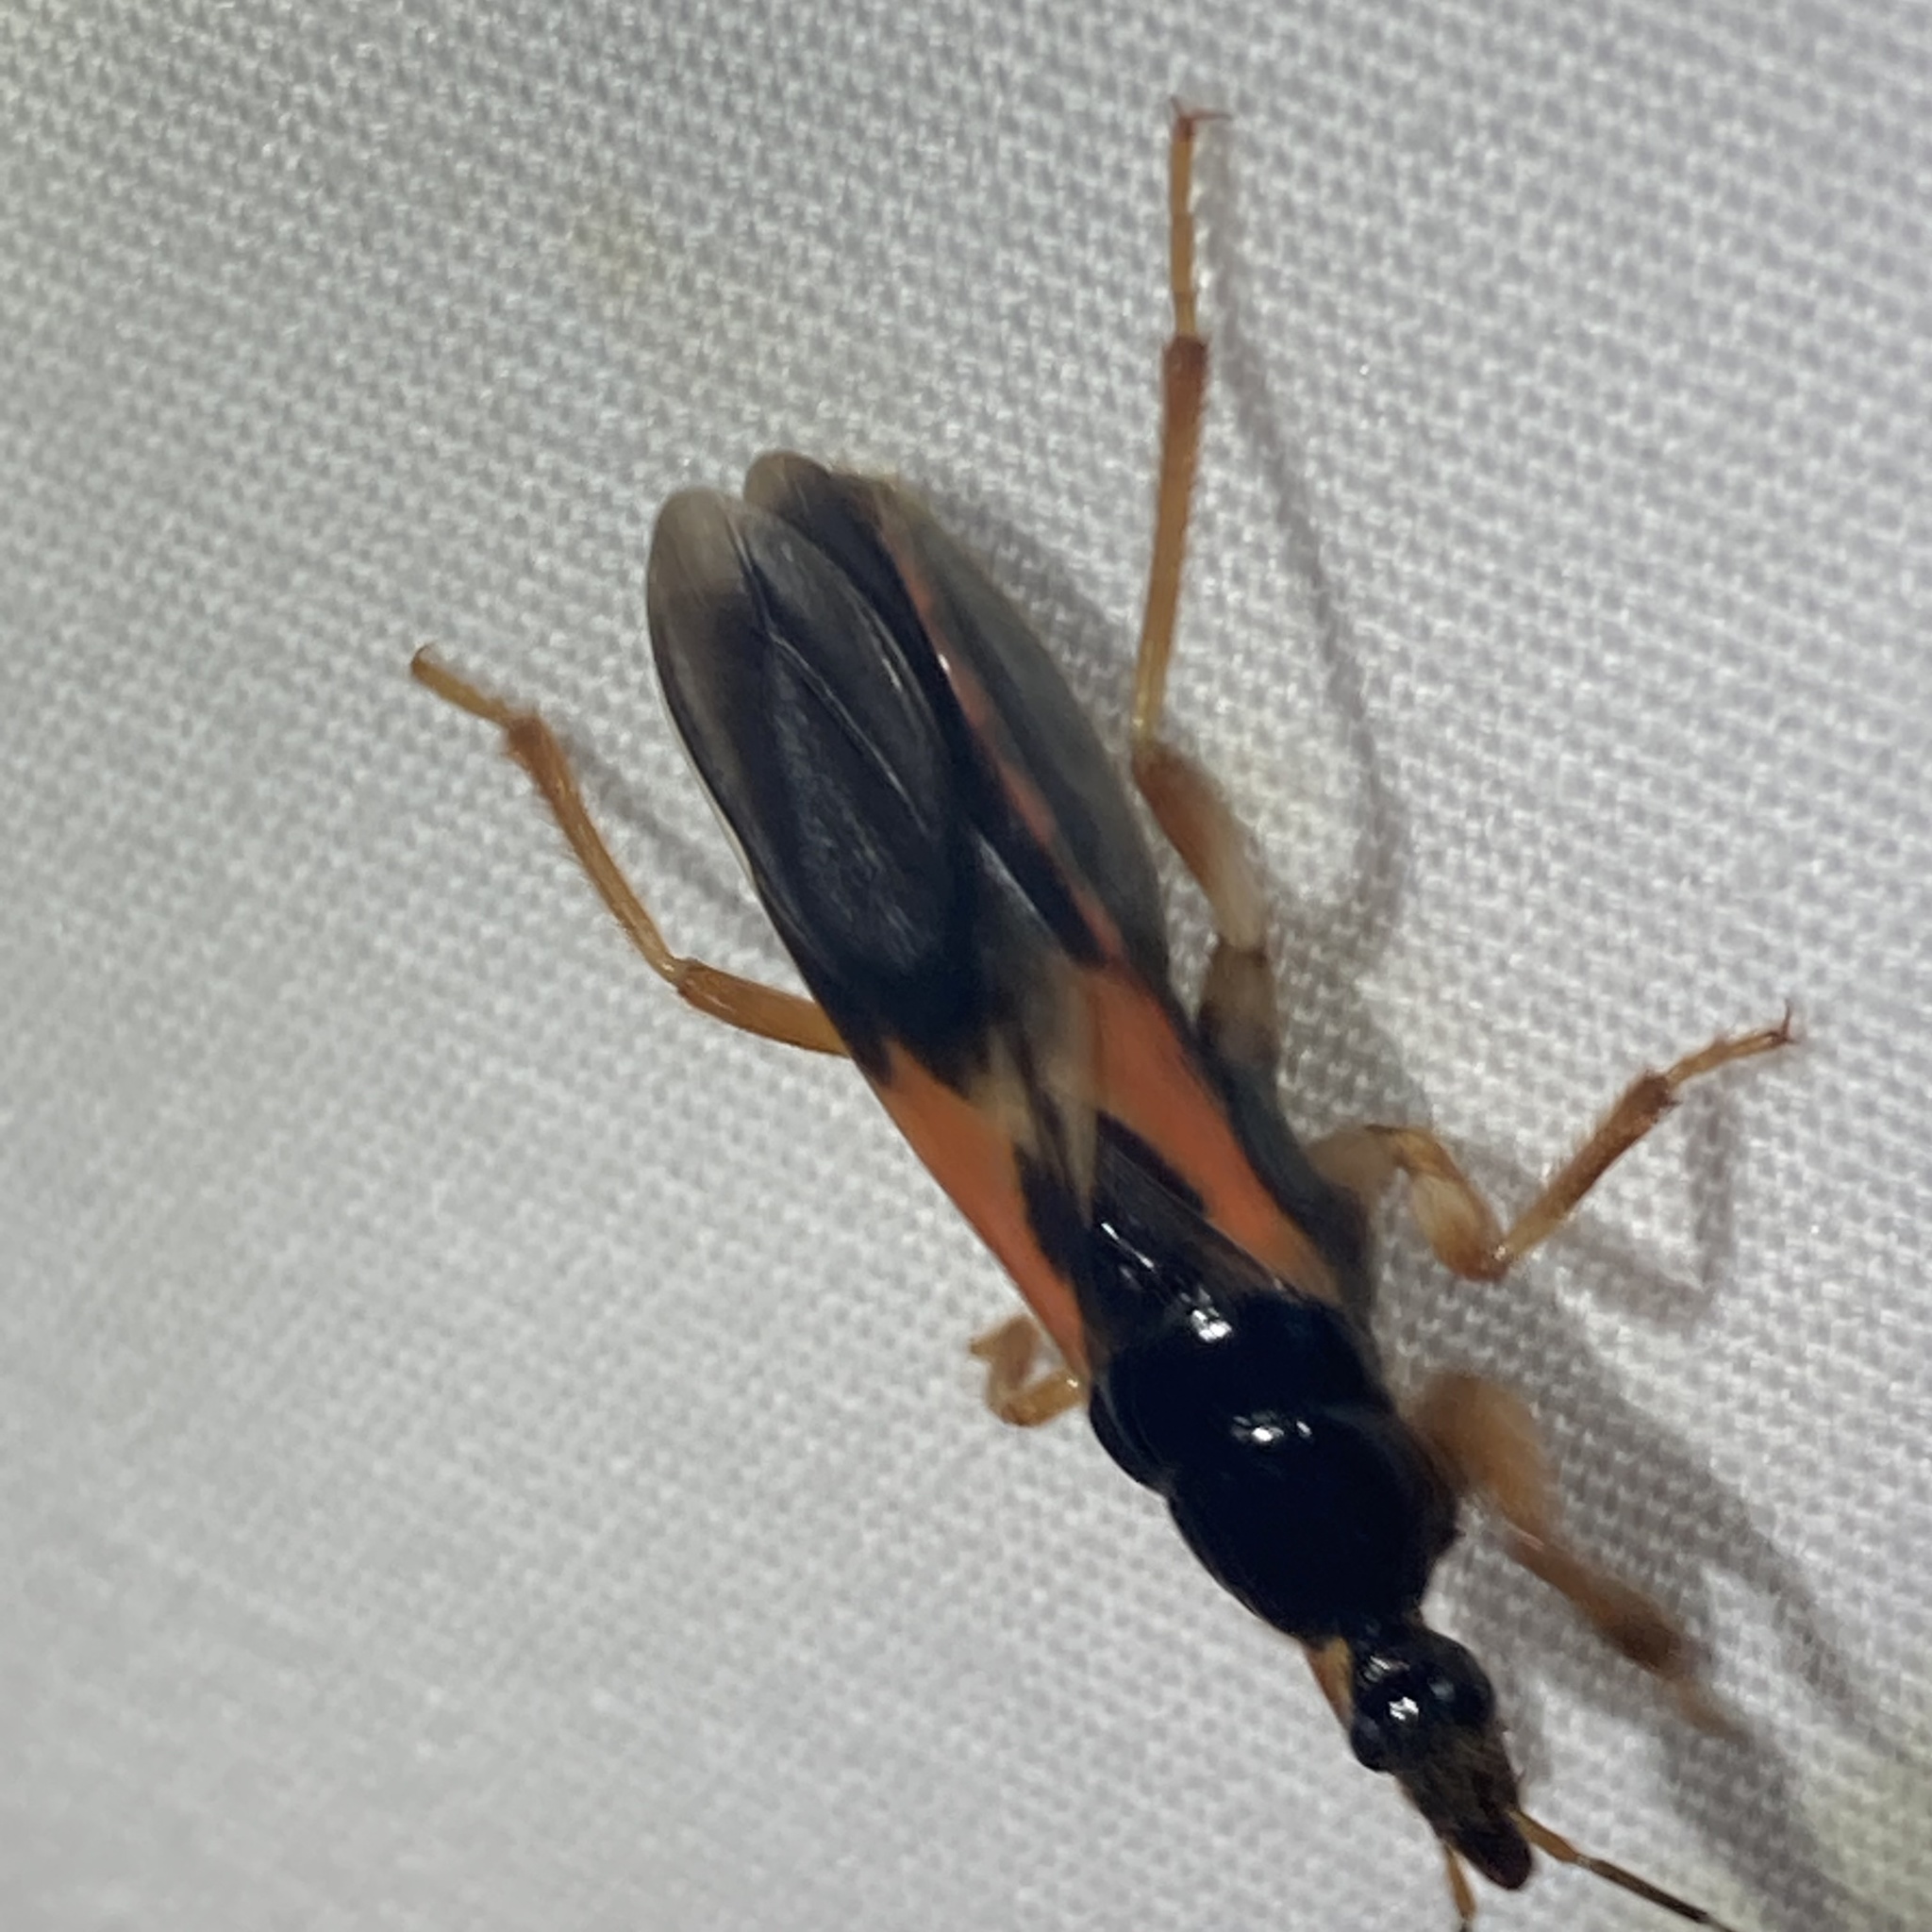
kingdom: Animalia
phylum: Arthropoda
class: Insecta
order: Hemiptera
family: Reduviidae
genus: Sirthenea
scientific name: Sirthenea stria
